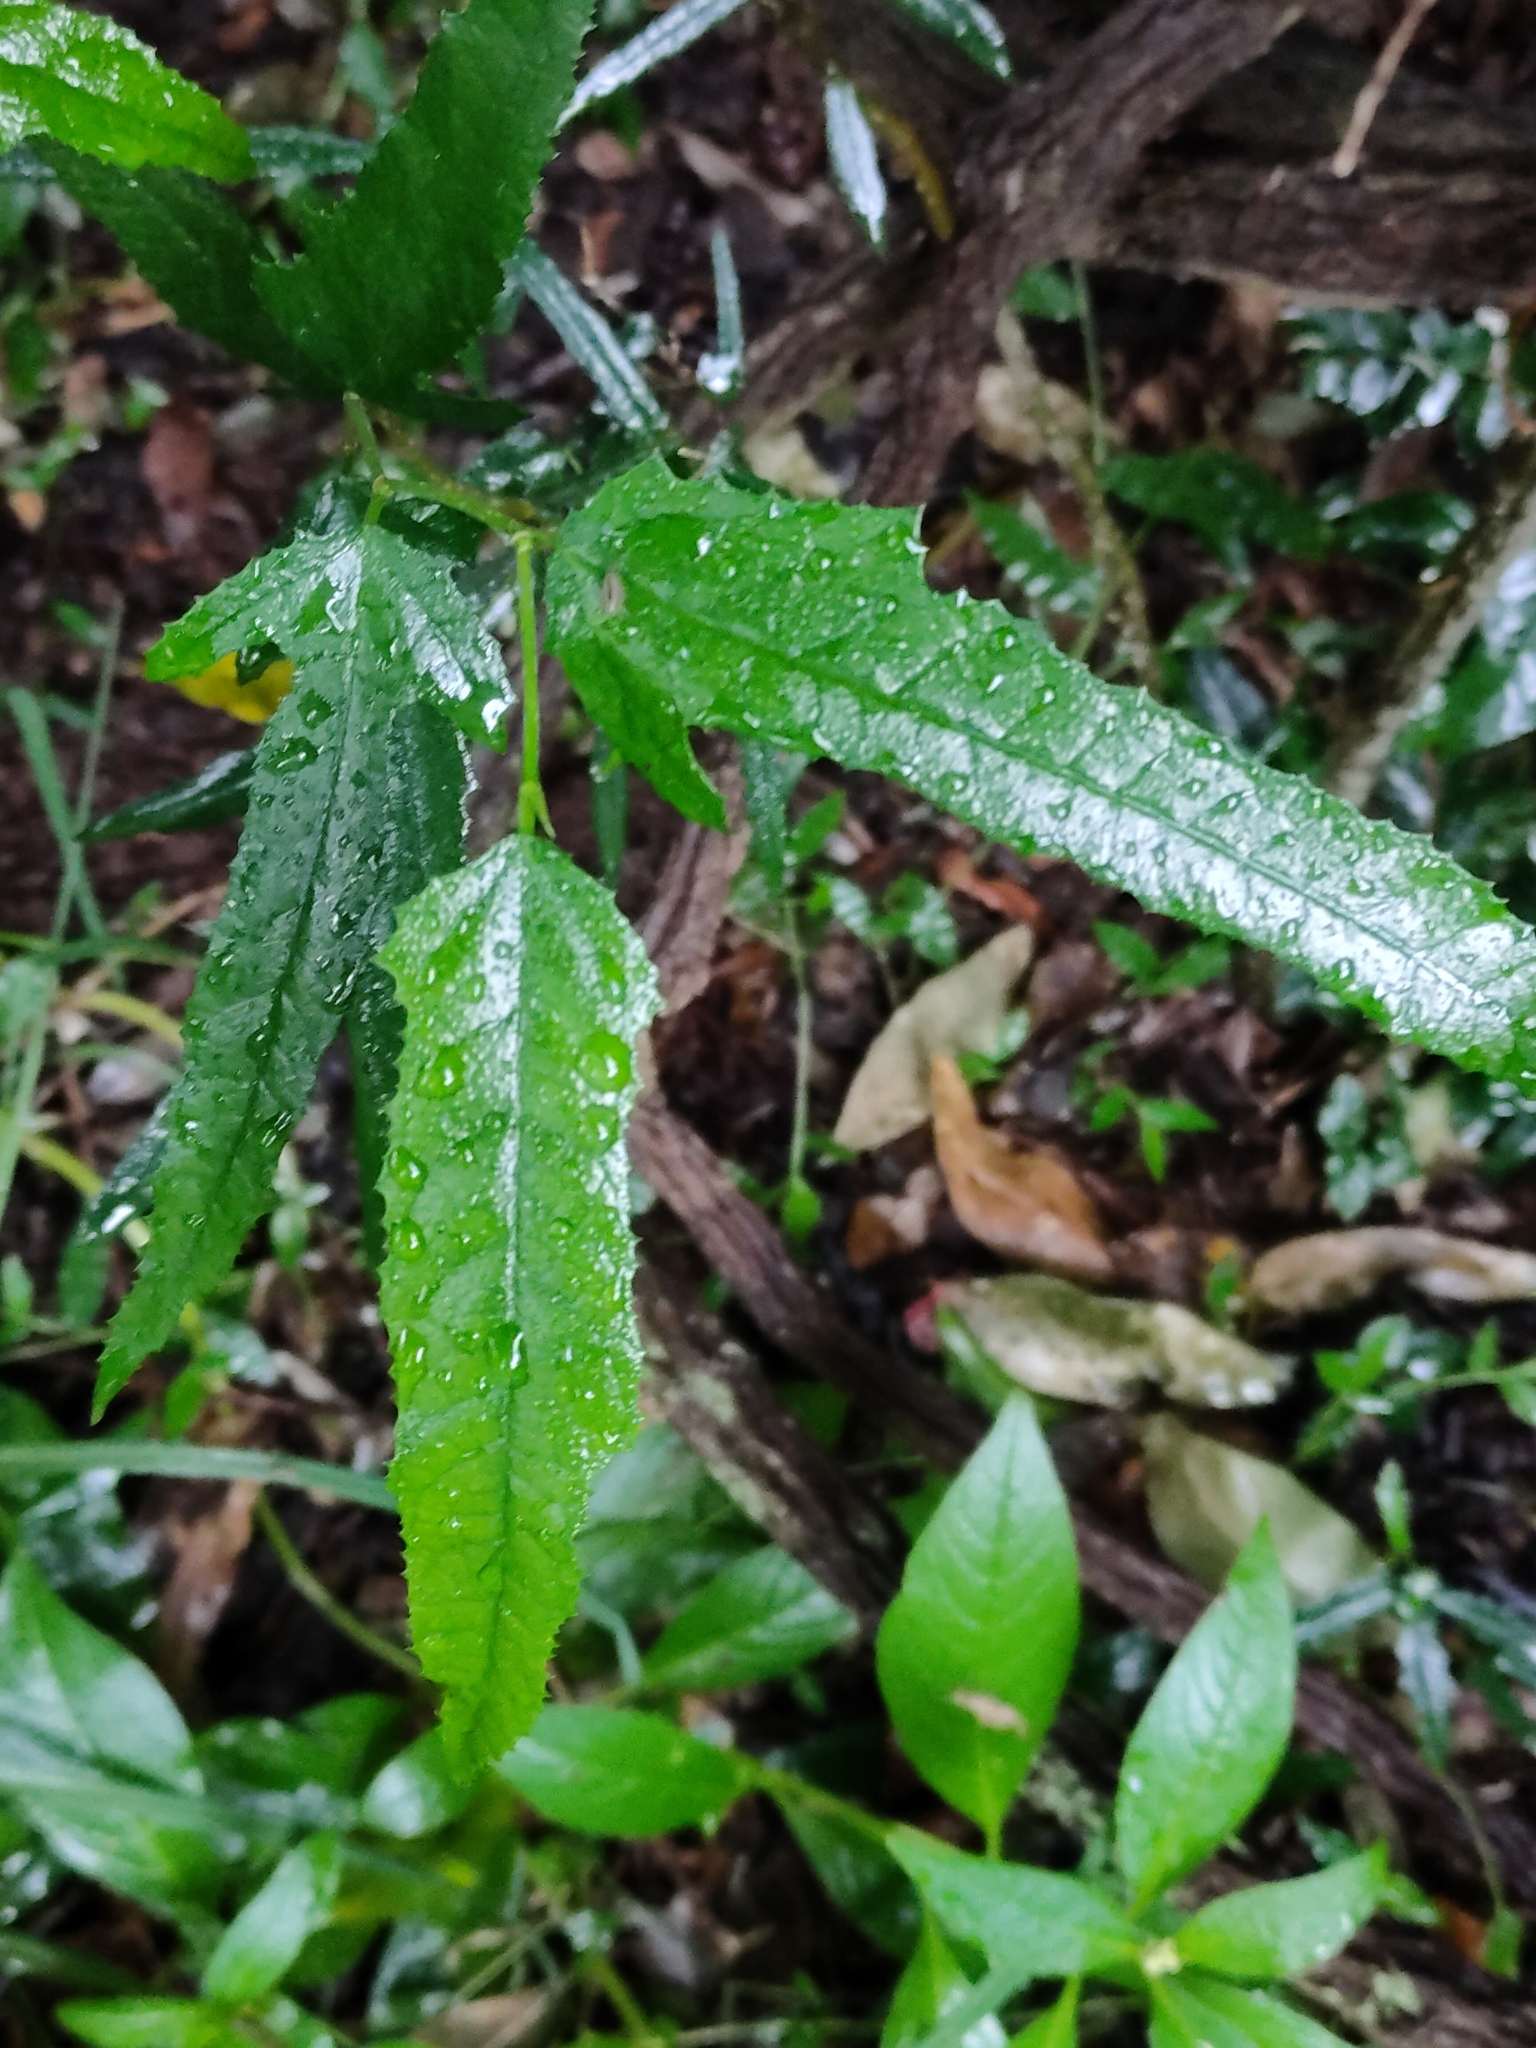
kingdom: Plantae
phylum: Tracheophyta
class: Magnoliopsida
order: Rosales
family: Moraceae
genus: Paratrophis
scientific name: Paratrophis pendulina
